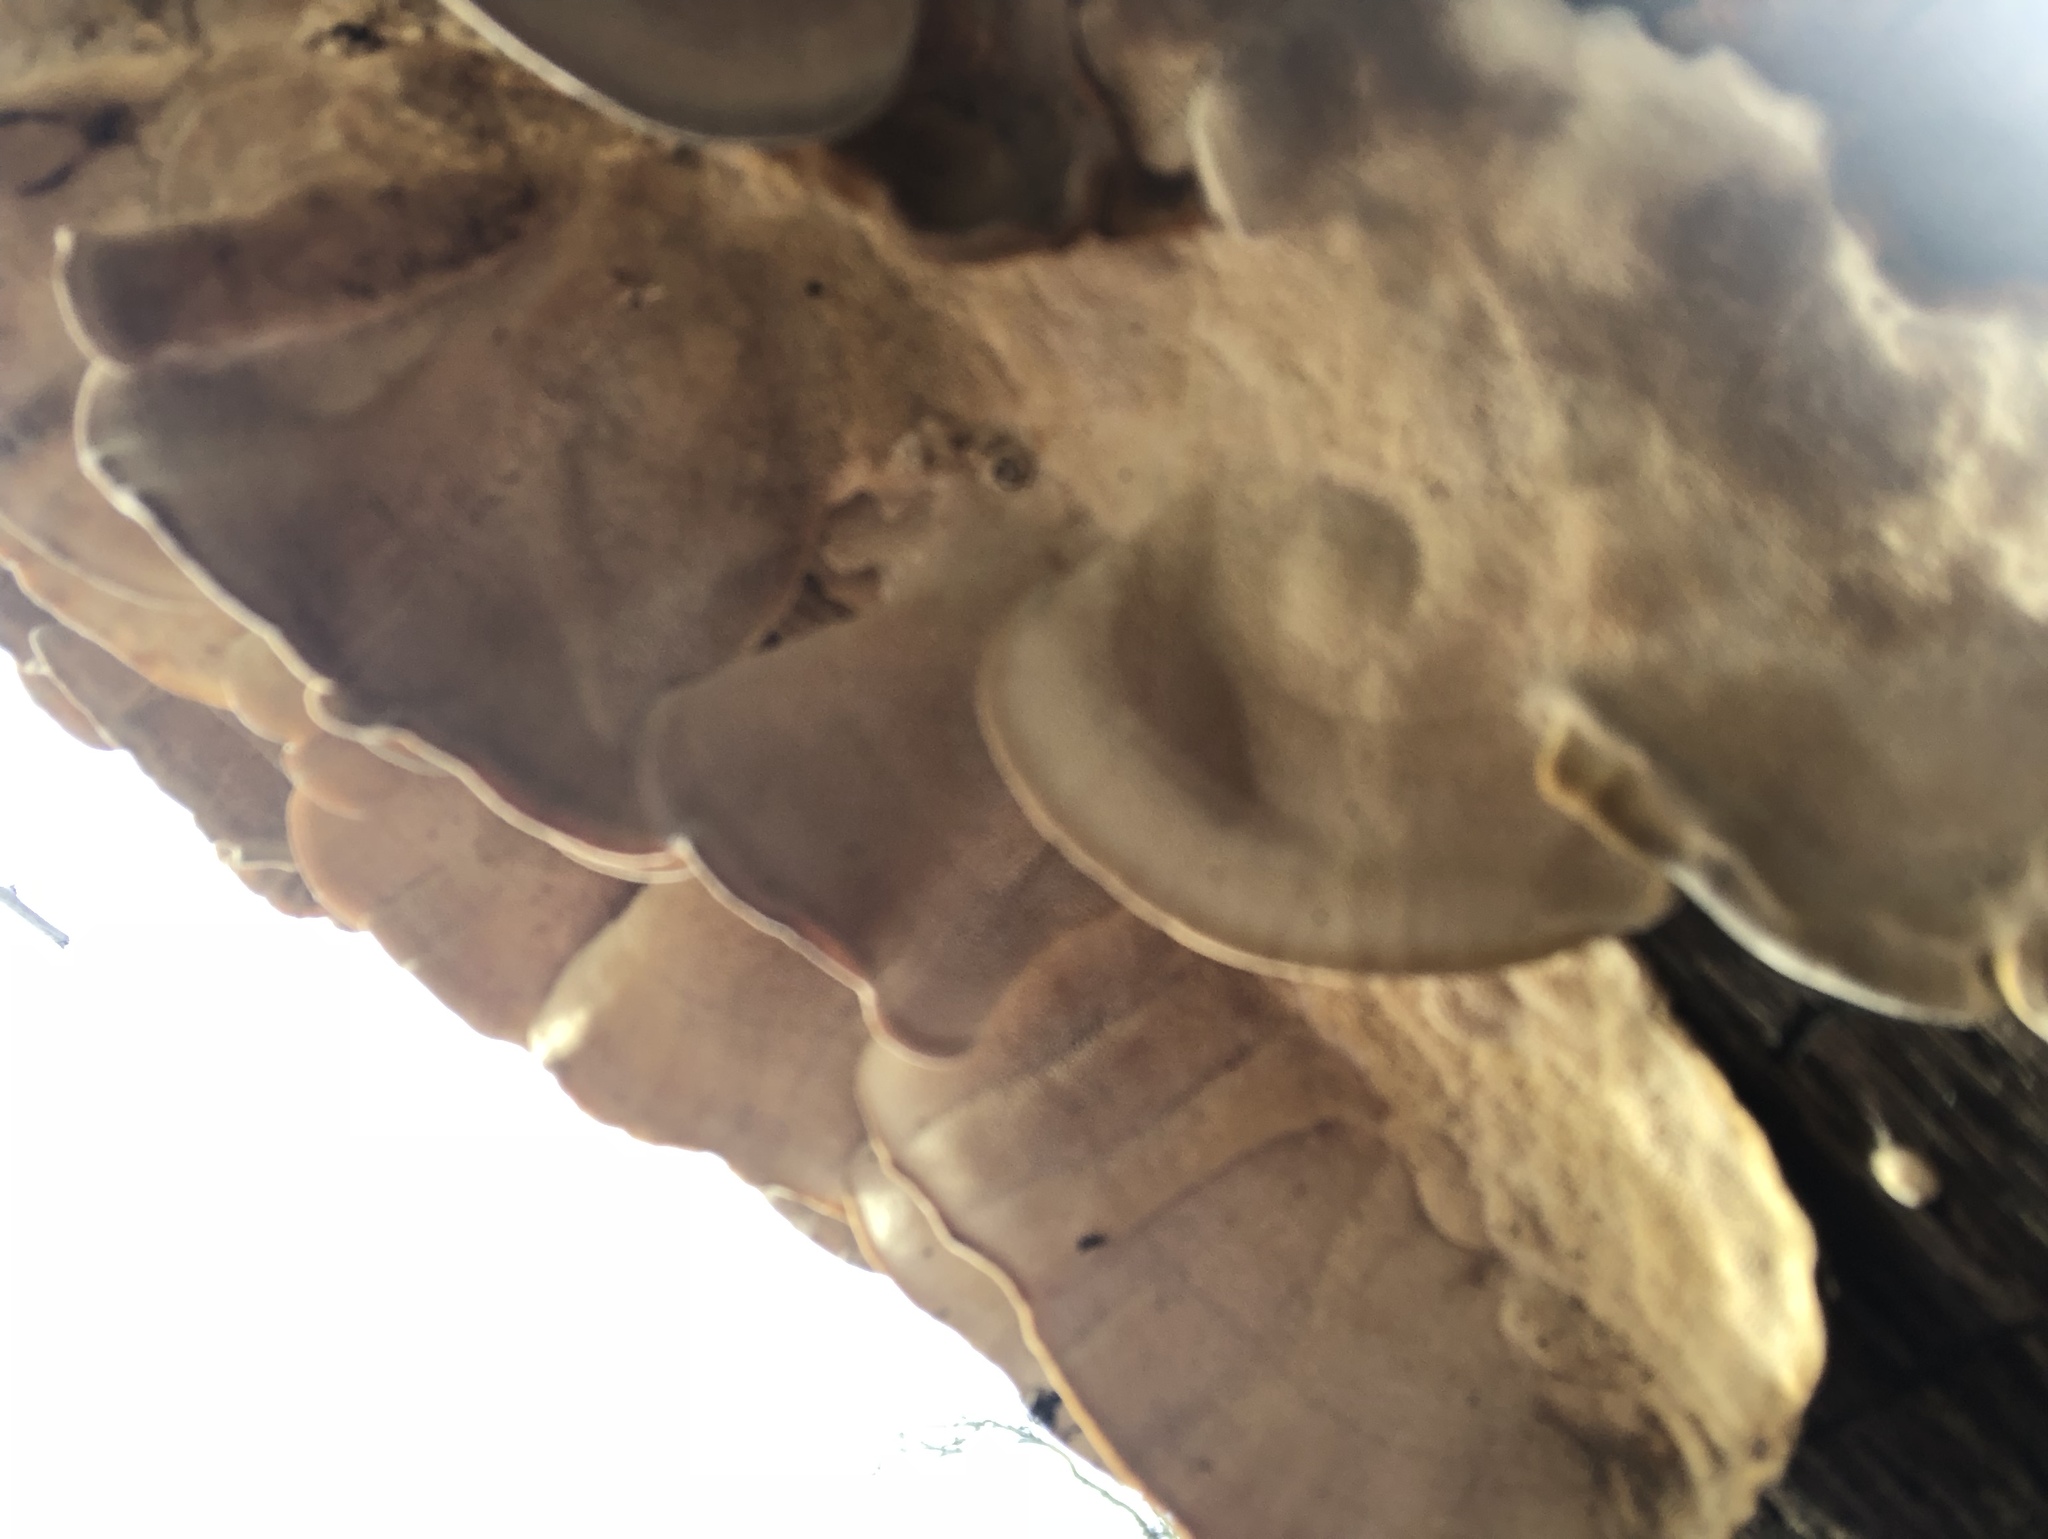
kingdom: Fungi
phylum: Basidiomycota
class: Agaricomycetes
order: Polyporales
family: Polyporaceae
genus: Trametes
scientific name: Trametes versicolor
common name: Turkeytail
